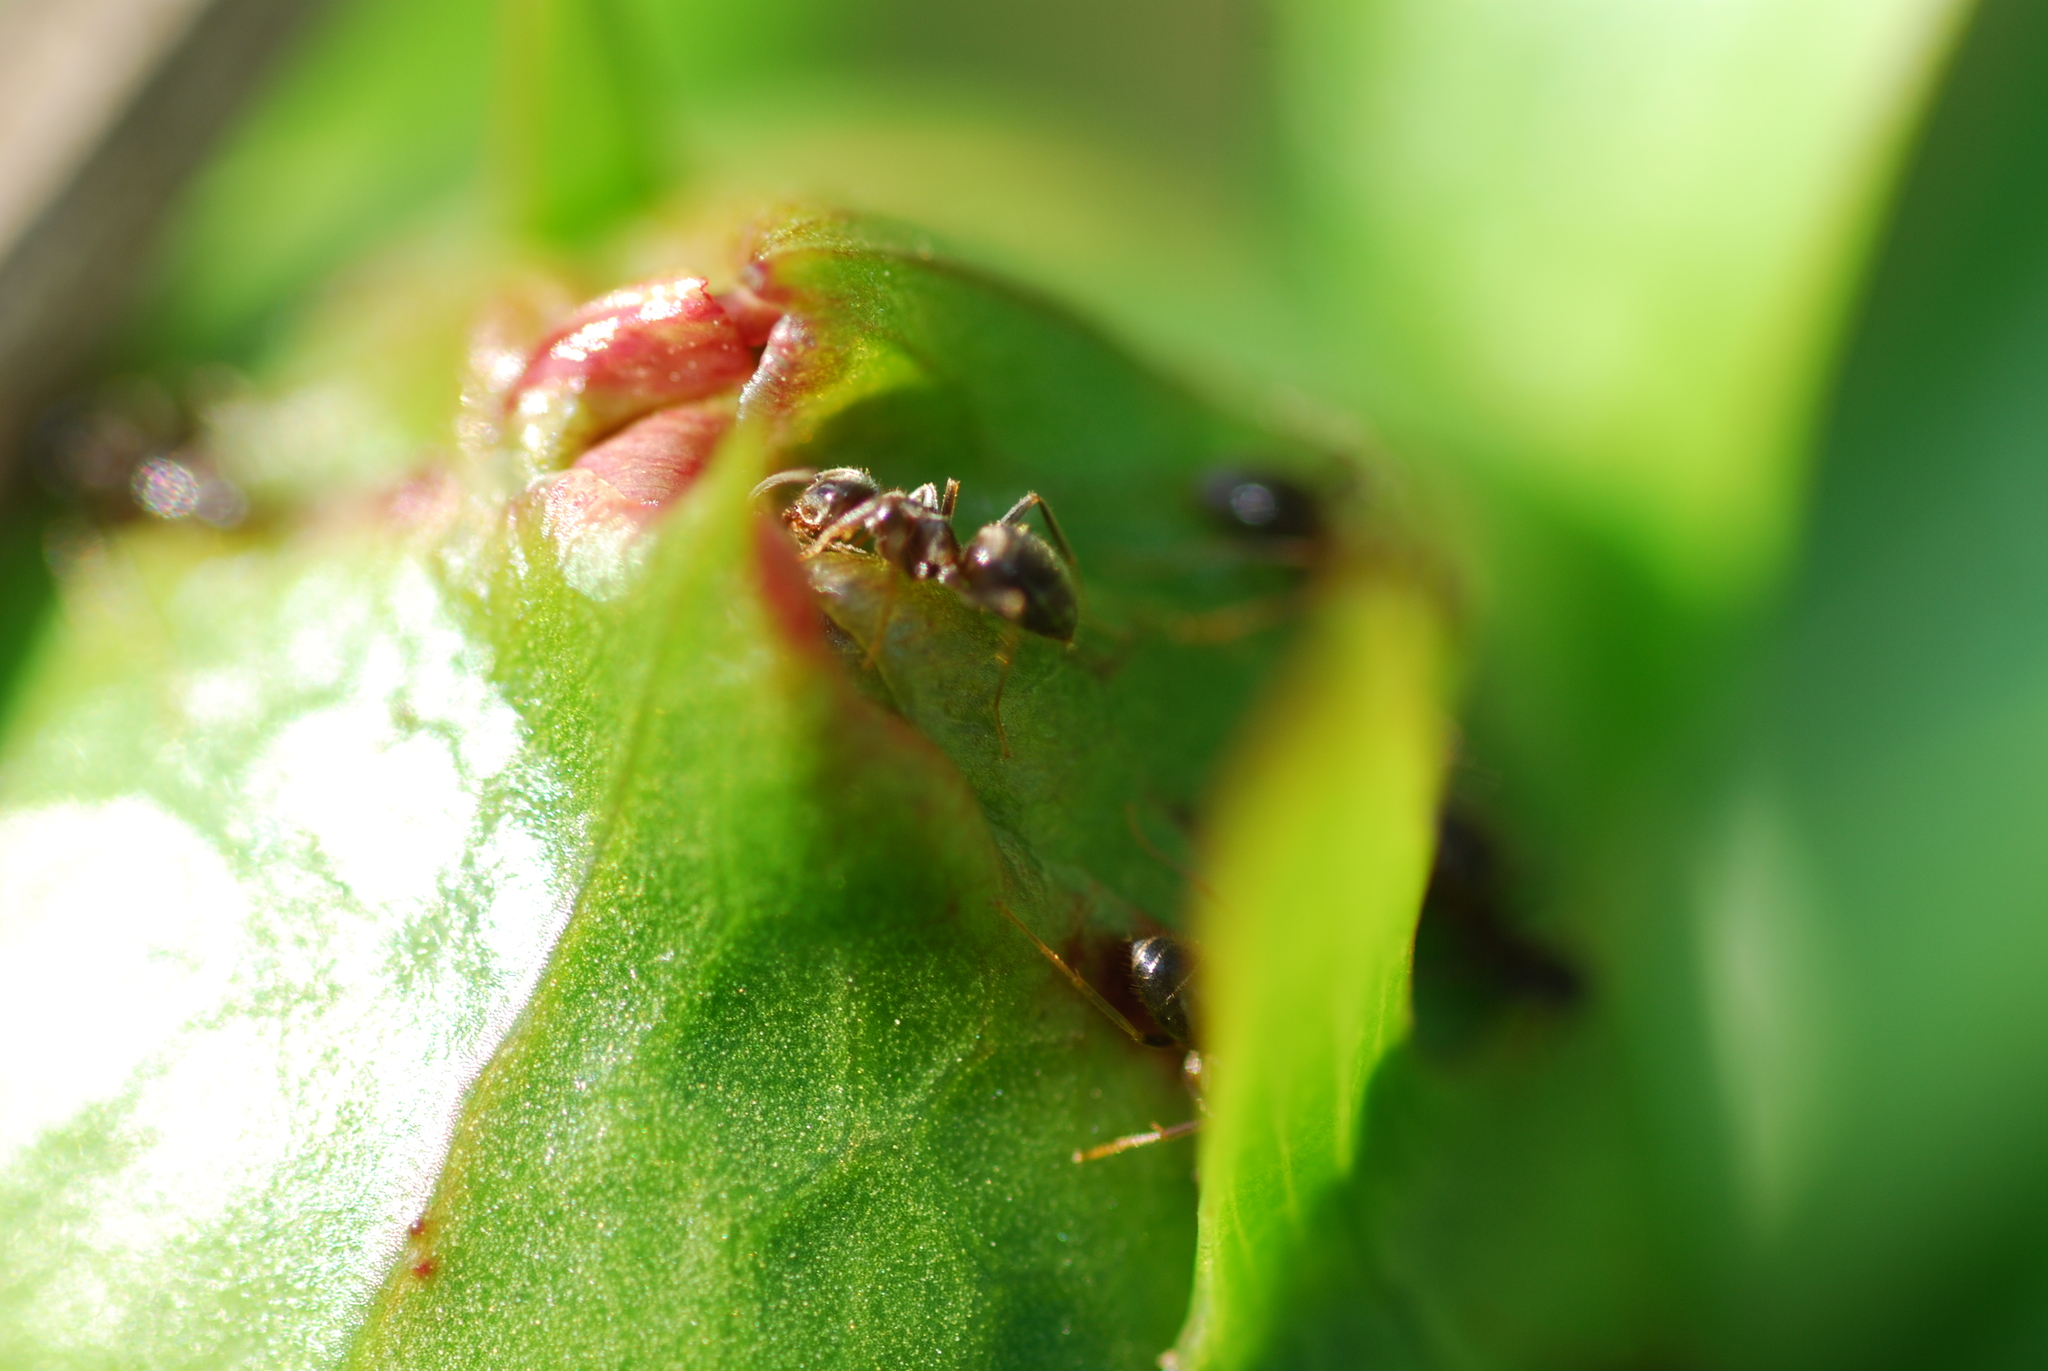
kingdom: Animalia
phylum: Arthropoda
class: Insecta
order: Hymenoptera
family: Formicidae
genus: Lasius
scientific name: Lasius niger
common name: Small black ant
